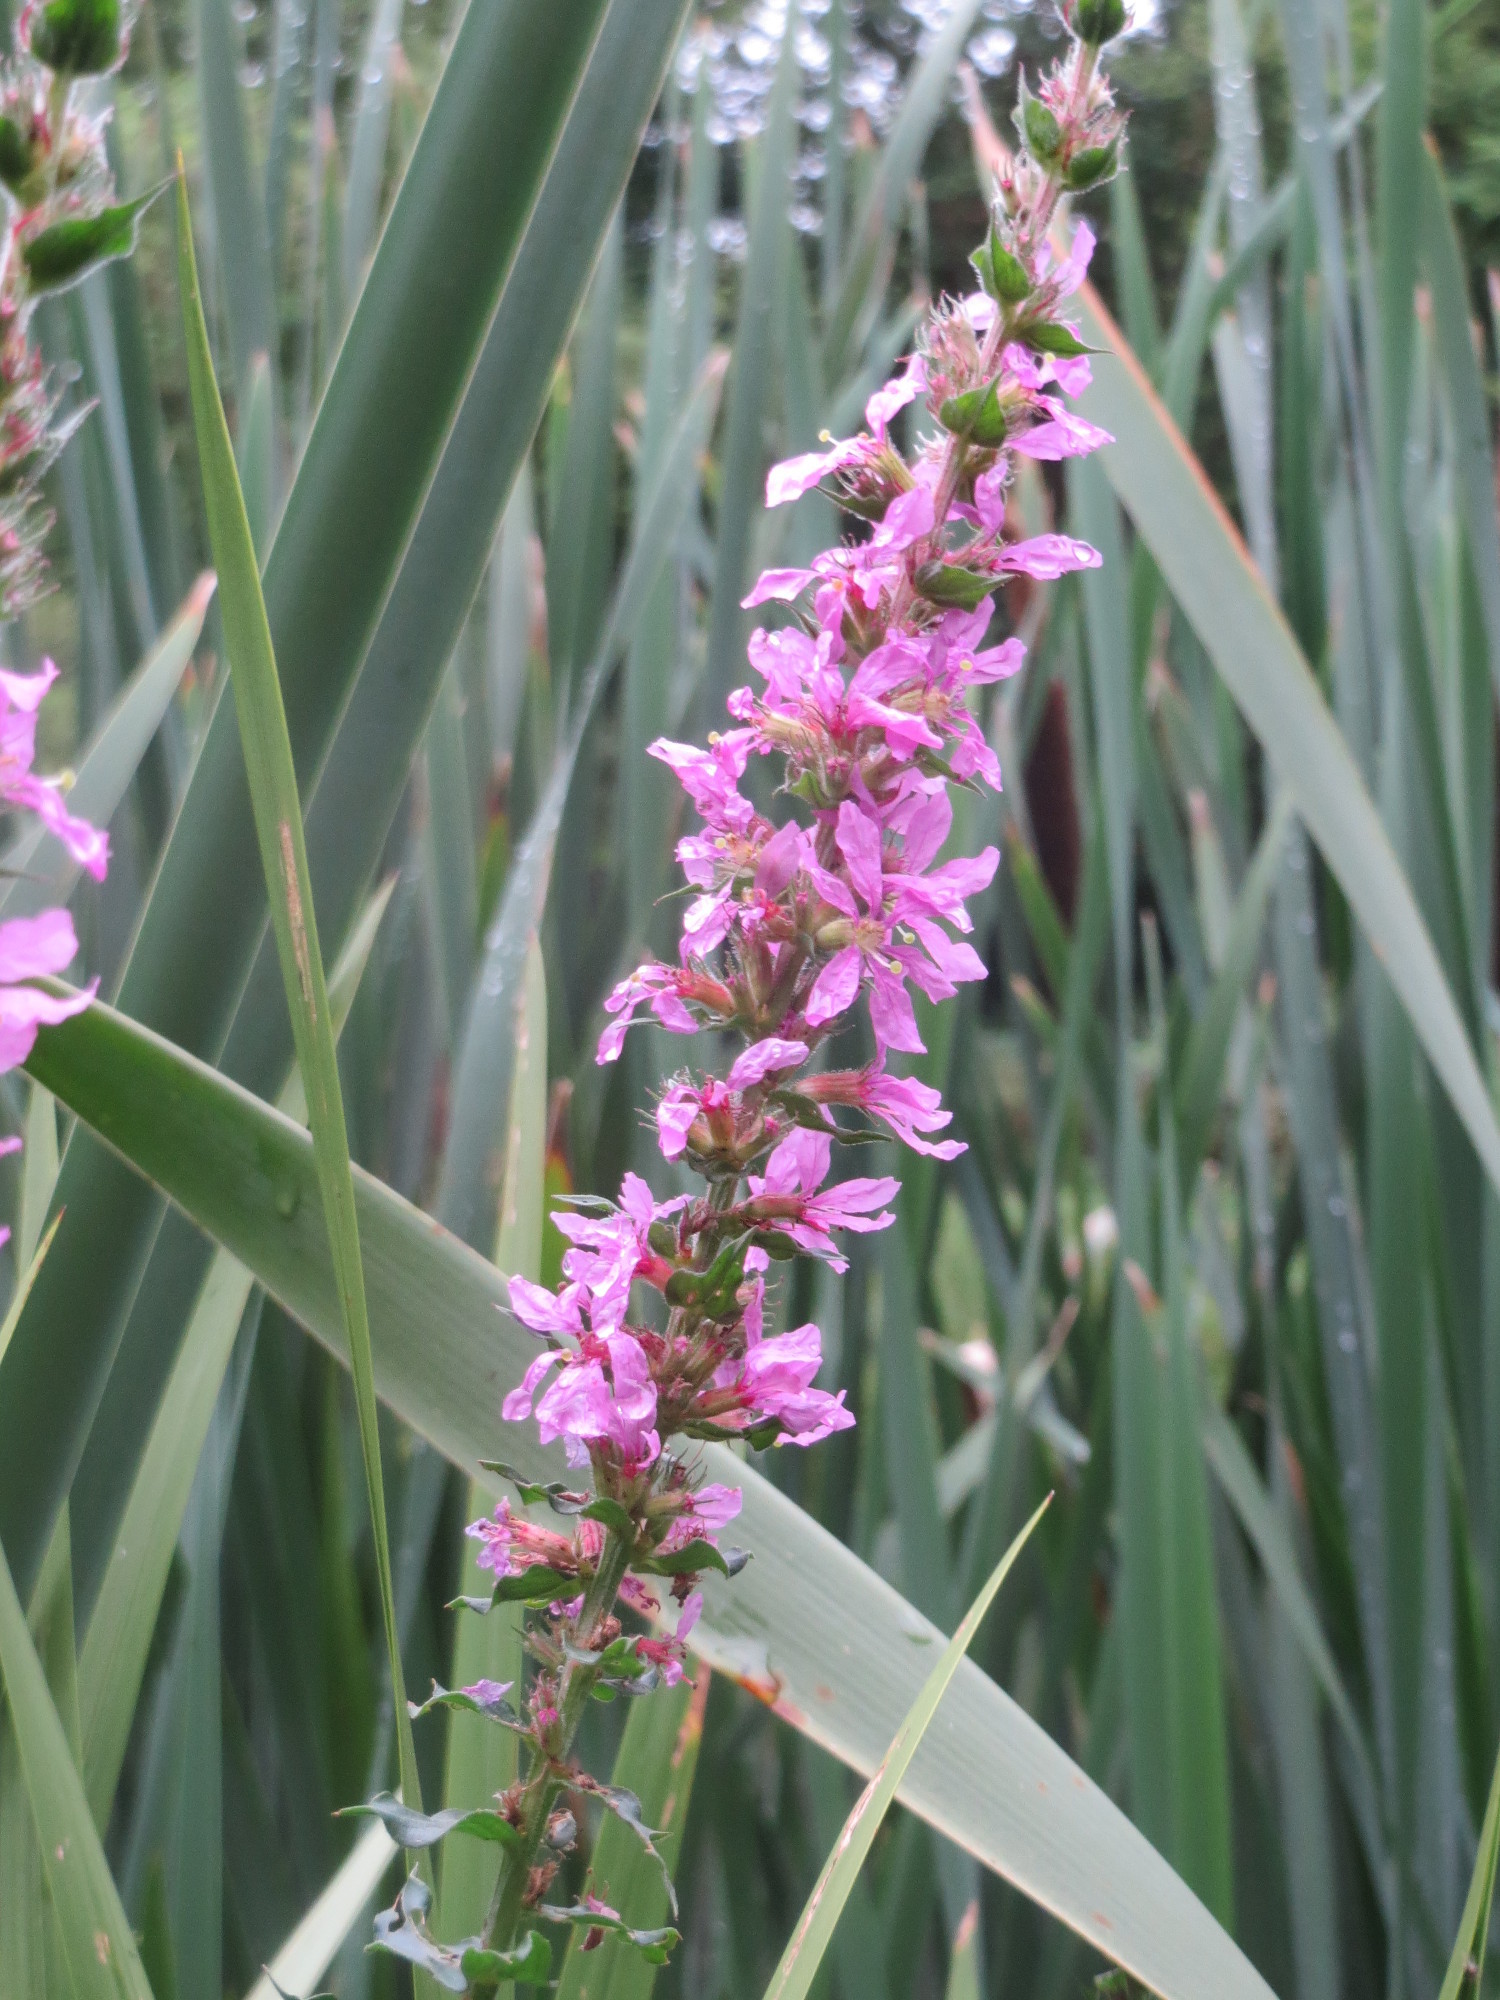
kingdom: Plantae
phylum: Tracheophyta
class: Magnoliopsida
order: Myrtales
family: Lythraceae
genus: Lythrum
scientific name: Lythrum salicaria
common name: Purple loosestrife
